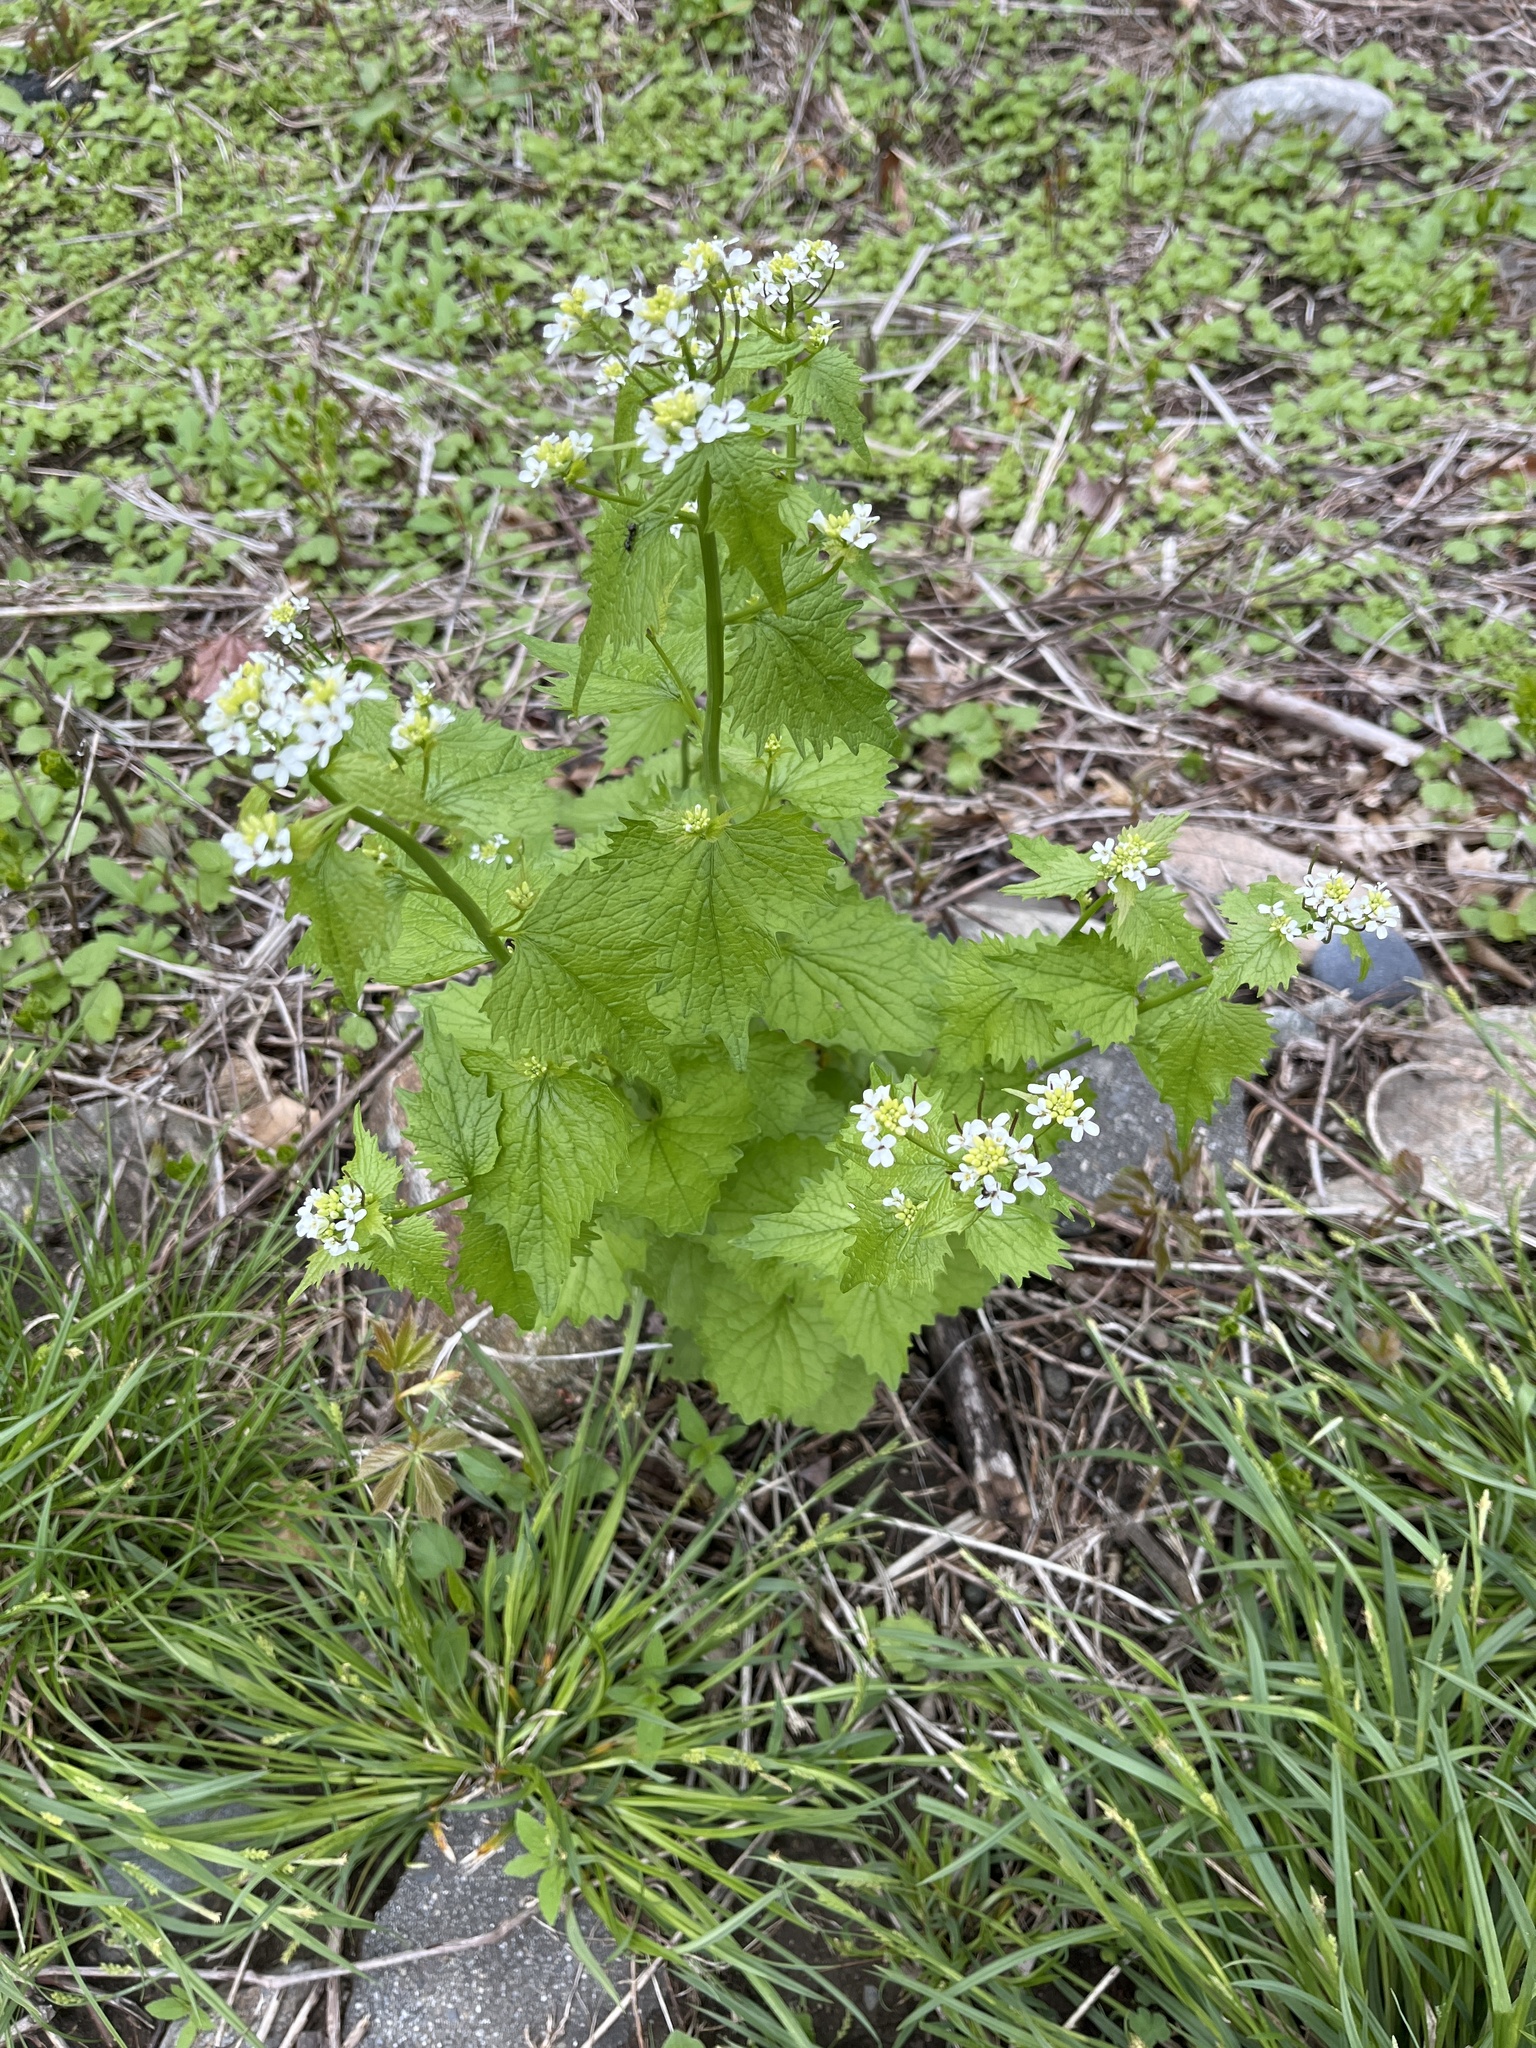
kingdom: Plantae
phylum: Tracheophyta
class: Magnoliopsida
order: Brassicales
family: Brassicaceae
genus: Alliaria
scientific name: Alliaria petiolata
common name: Garlic mustard
